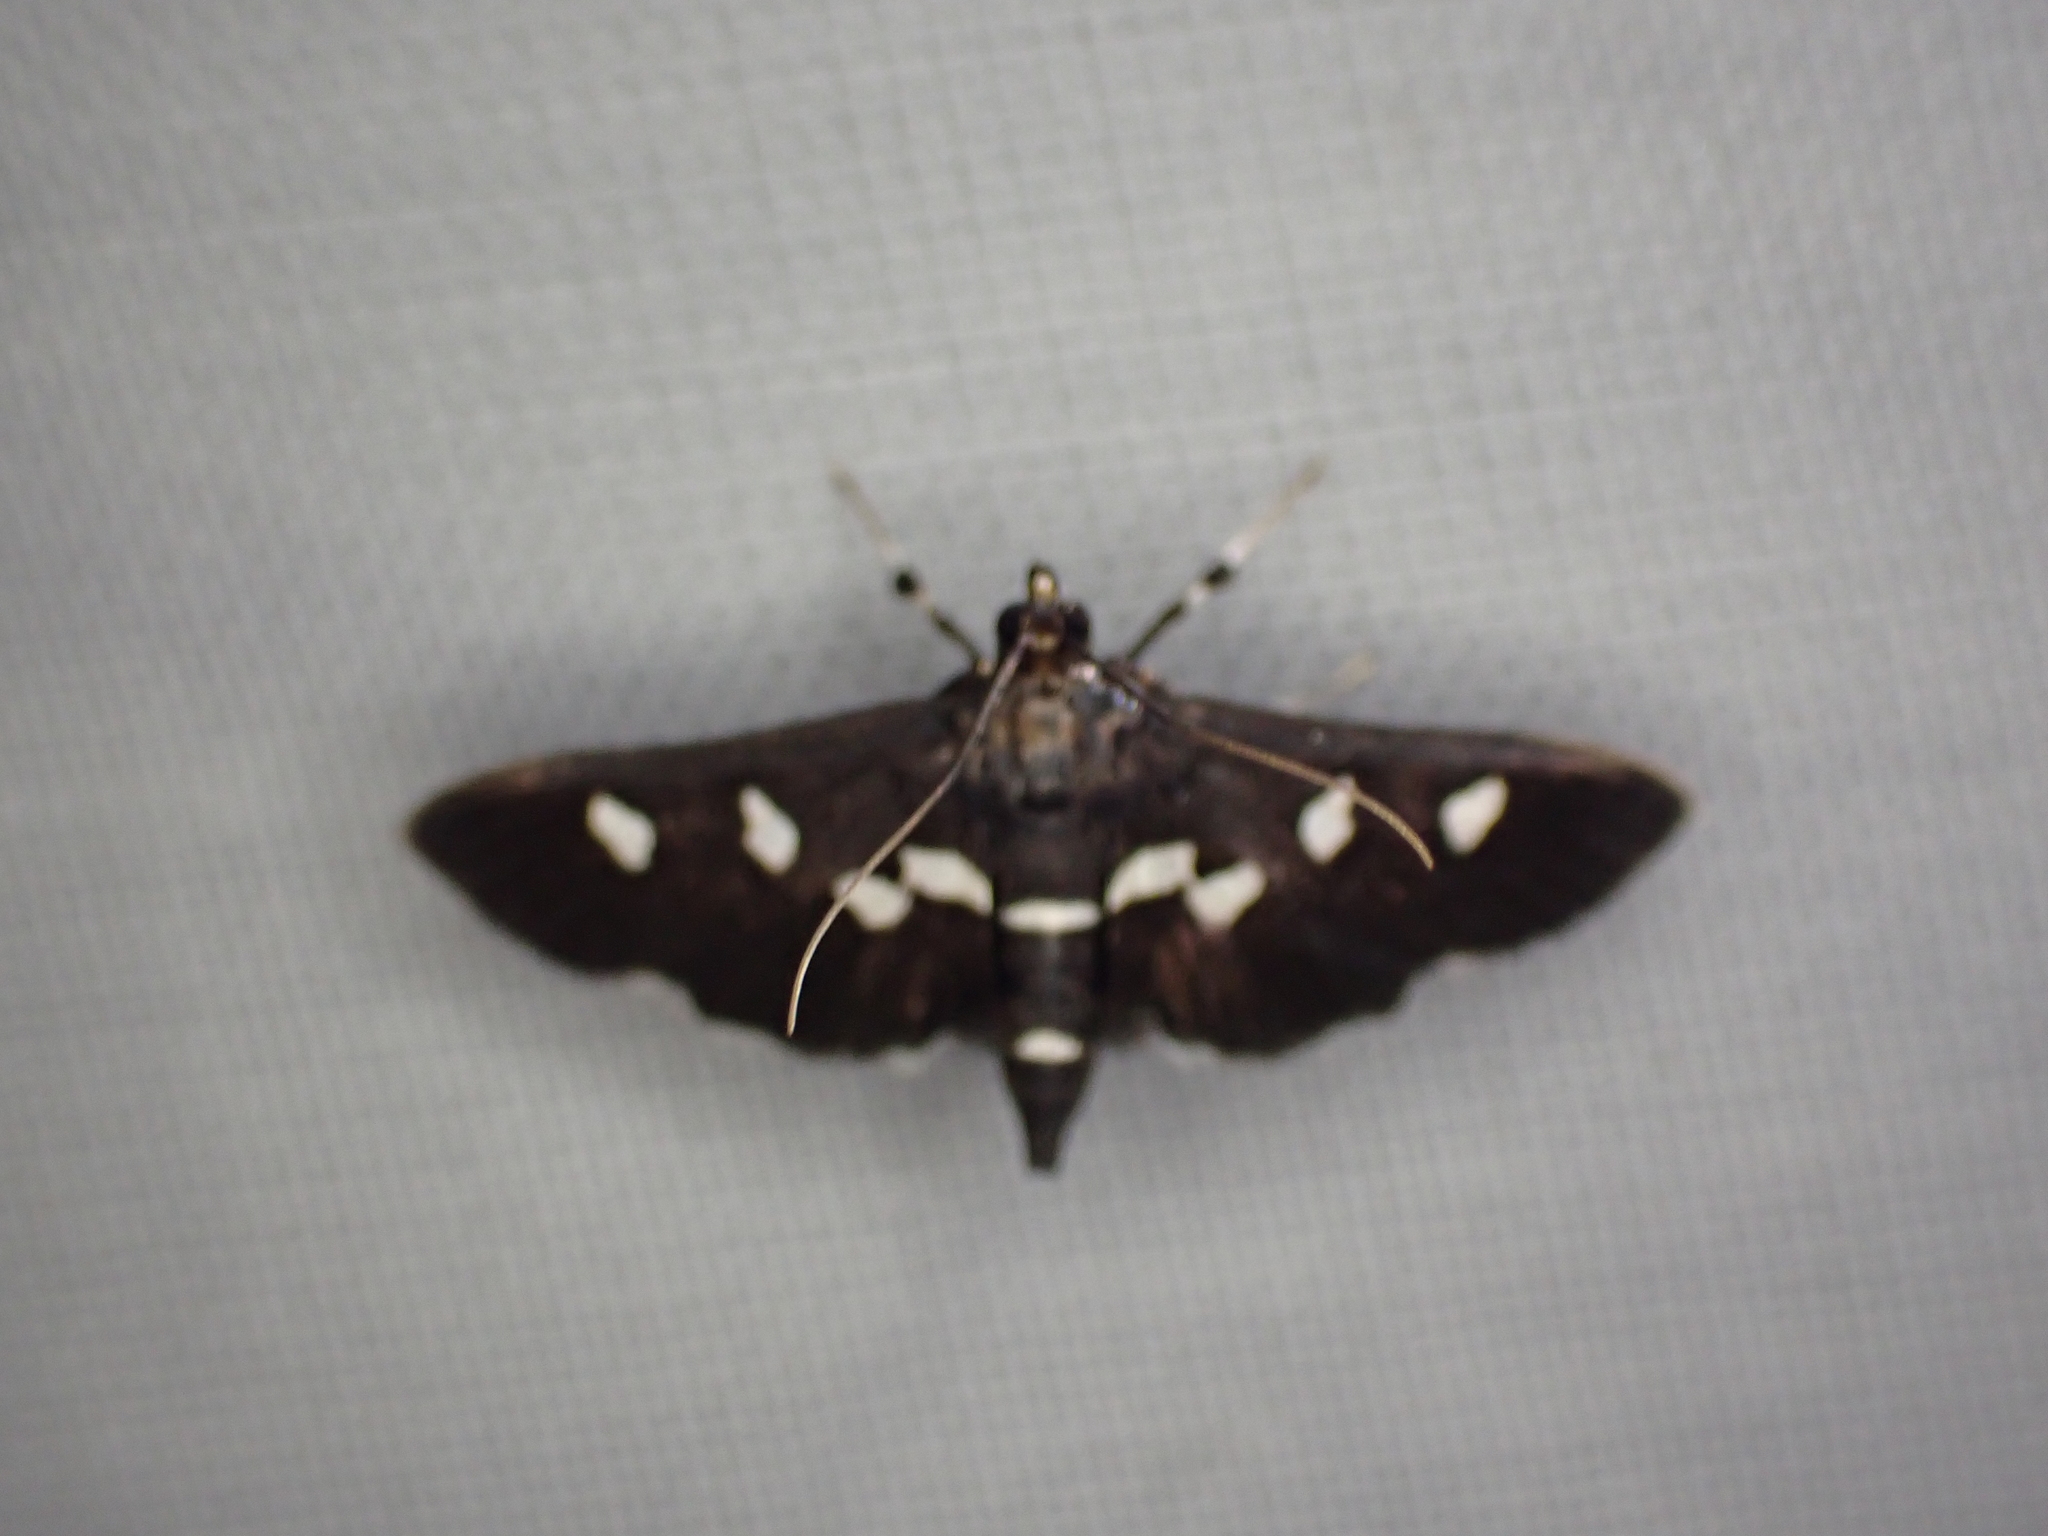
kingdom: Animalia
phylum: Arthropoda
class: Insecta
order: Lepidoptera
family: Crambidae
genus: Desmia
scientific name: Desmia
